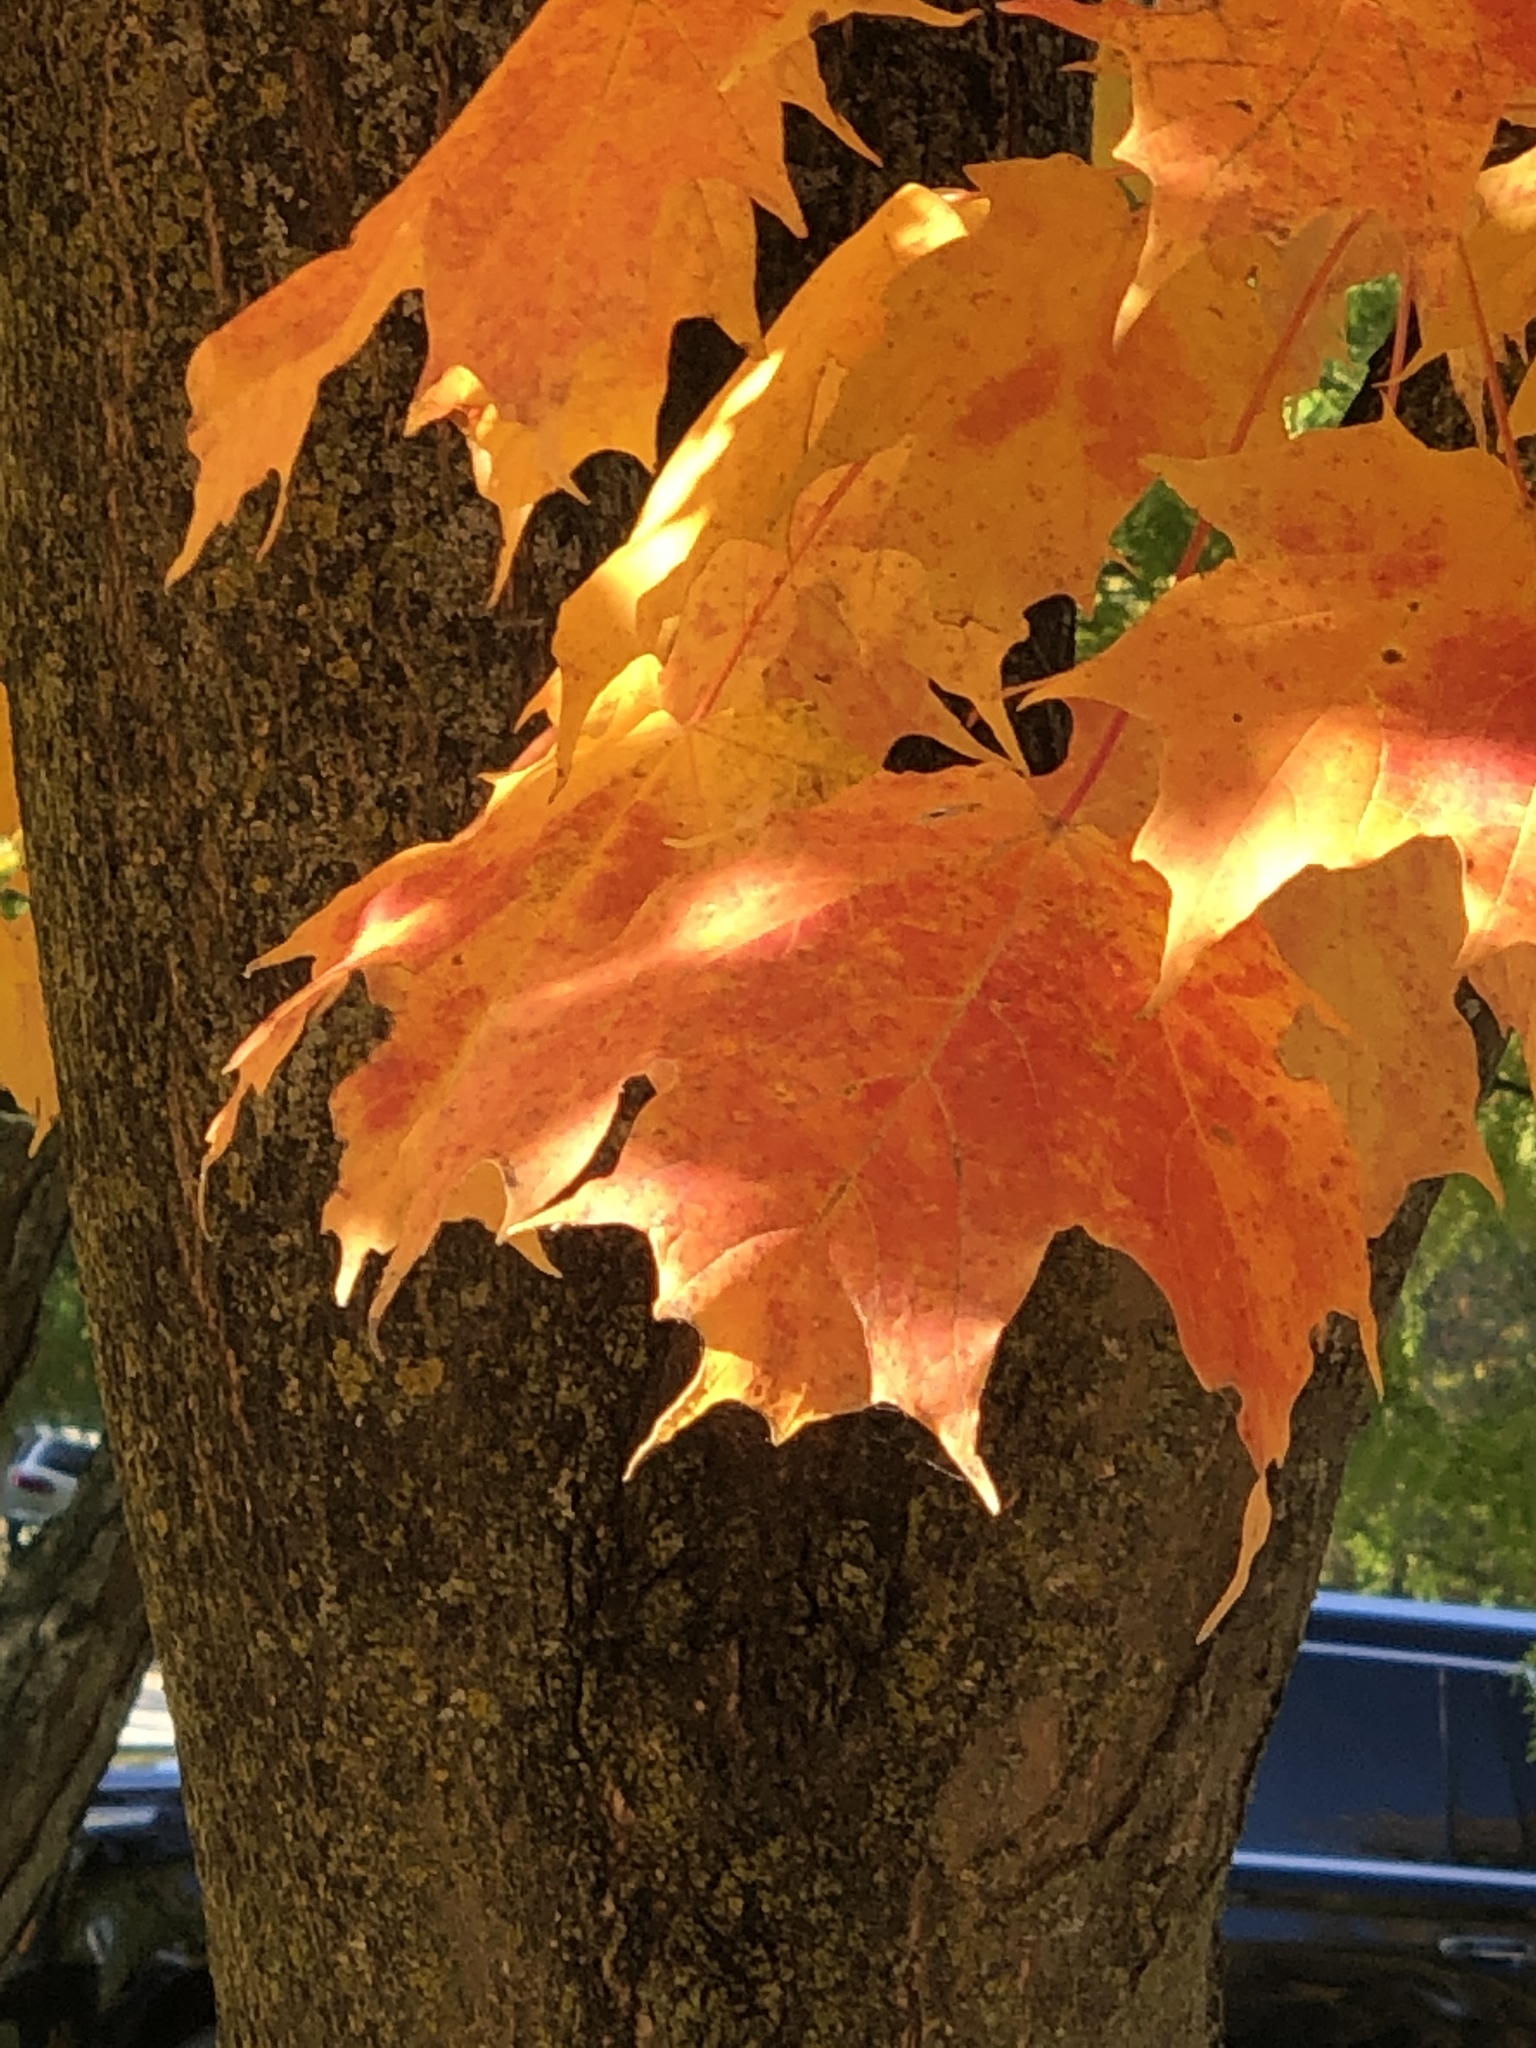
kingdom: Plantae
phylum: Tracheophyta
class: Magnoliopsida
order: Sapindales
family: Sapindaceae
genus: Acer
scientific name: Acer saccharum
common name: Sugar maple
